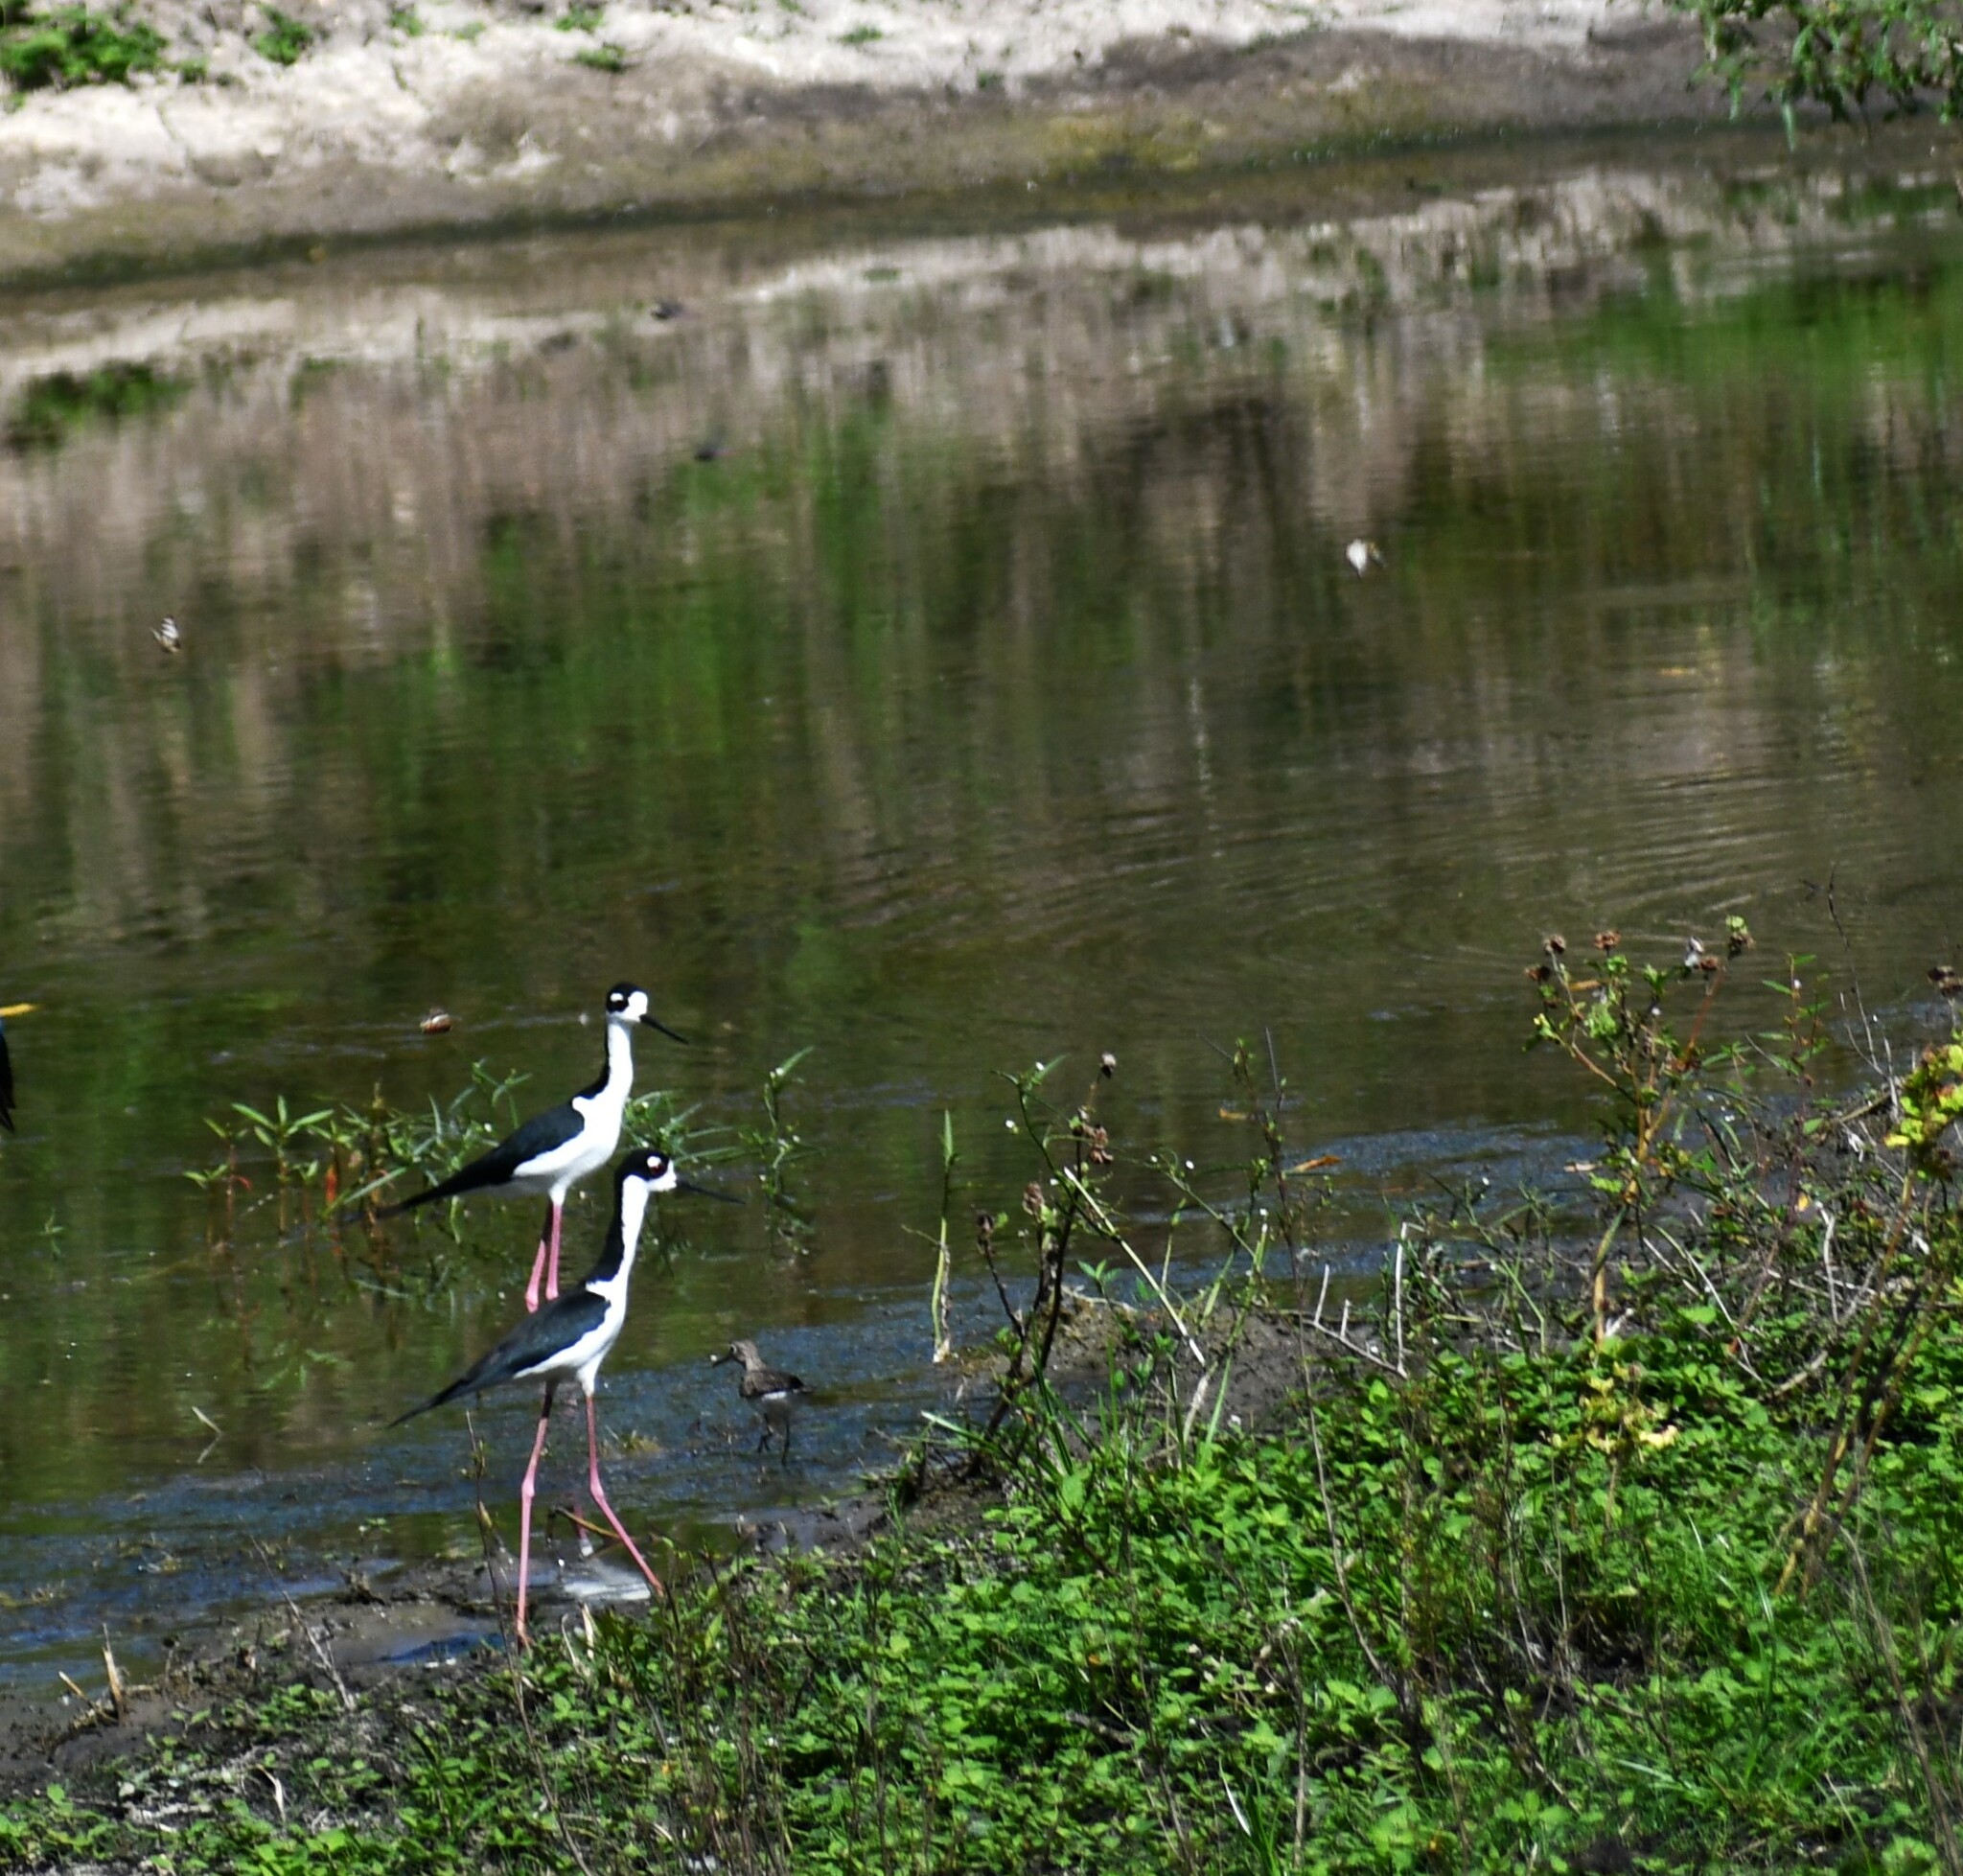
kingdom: Animalia
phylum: Chordata
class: Aves
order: Charadriiformes
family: Recurvirostridae
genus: Himantopus
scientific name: Himantopus mexicanus
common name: Black-necked stilt
